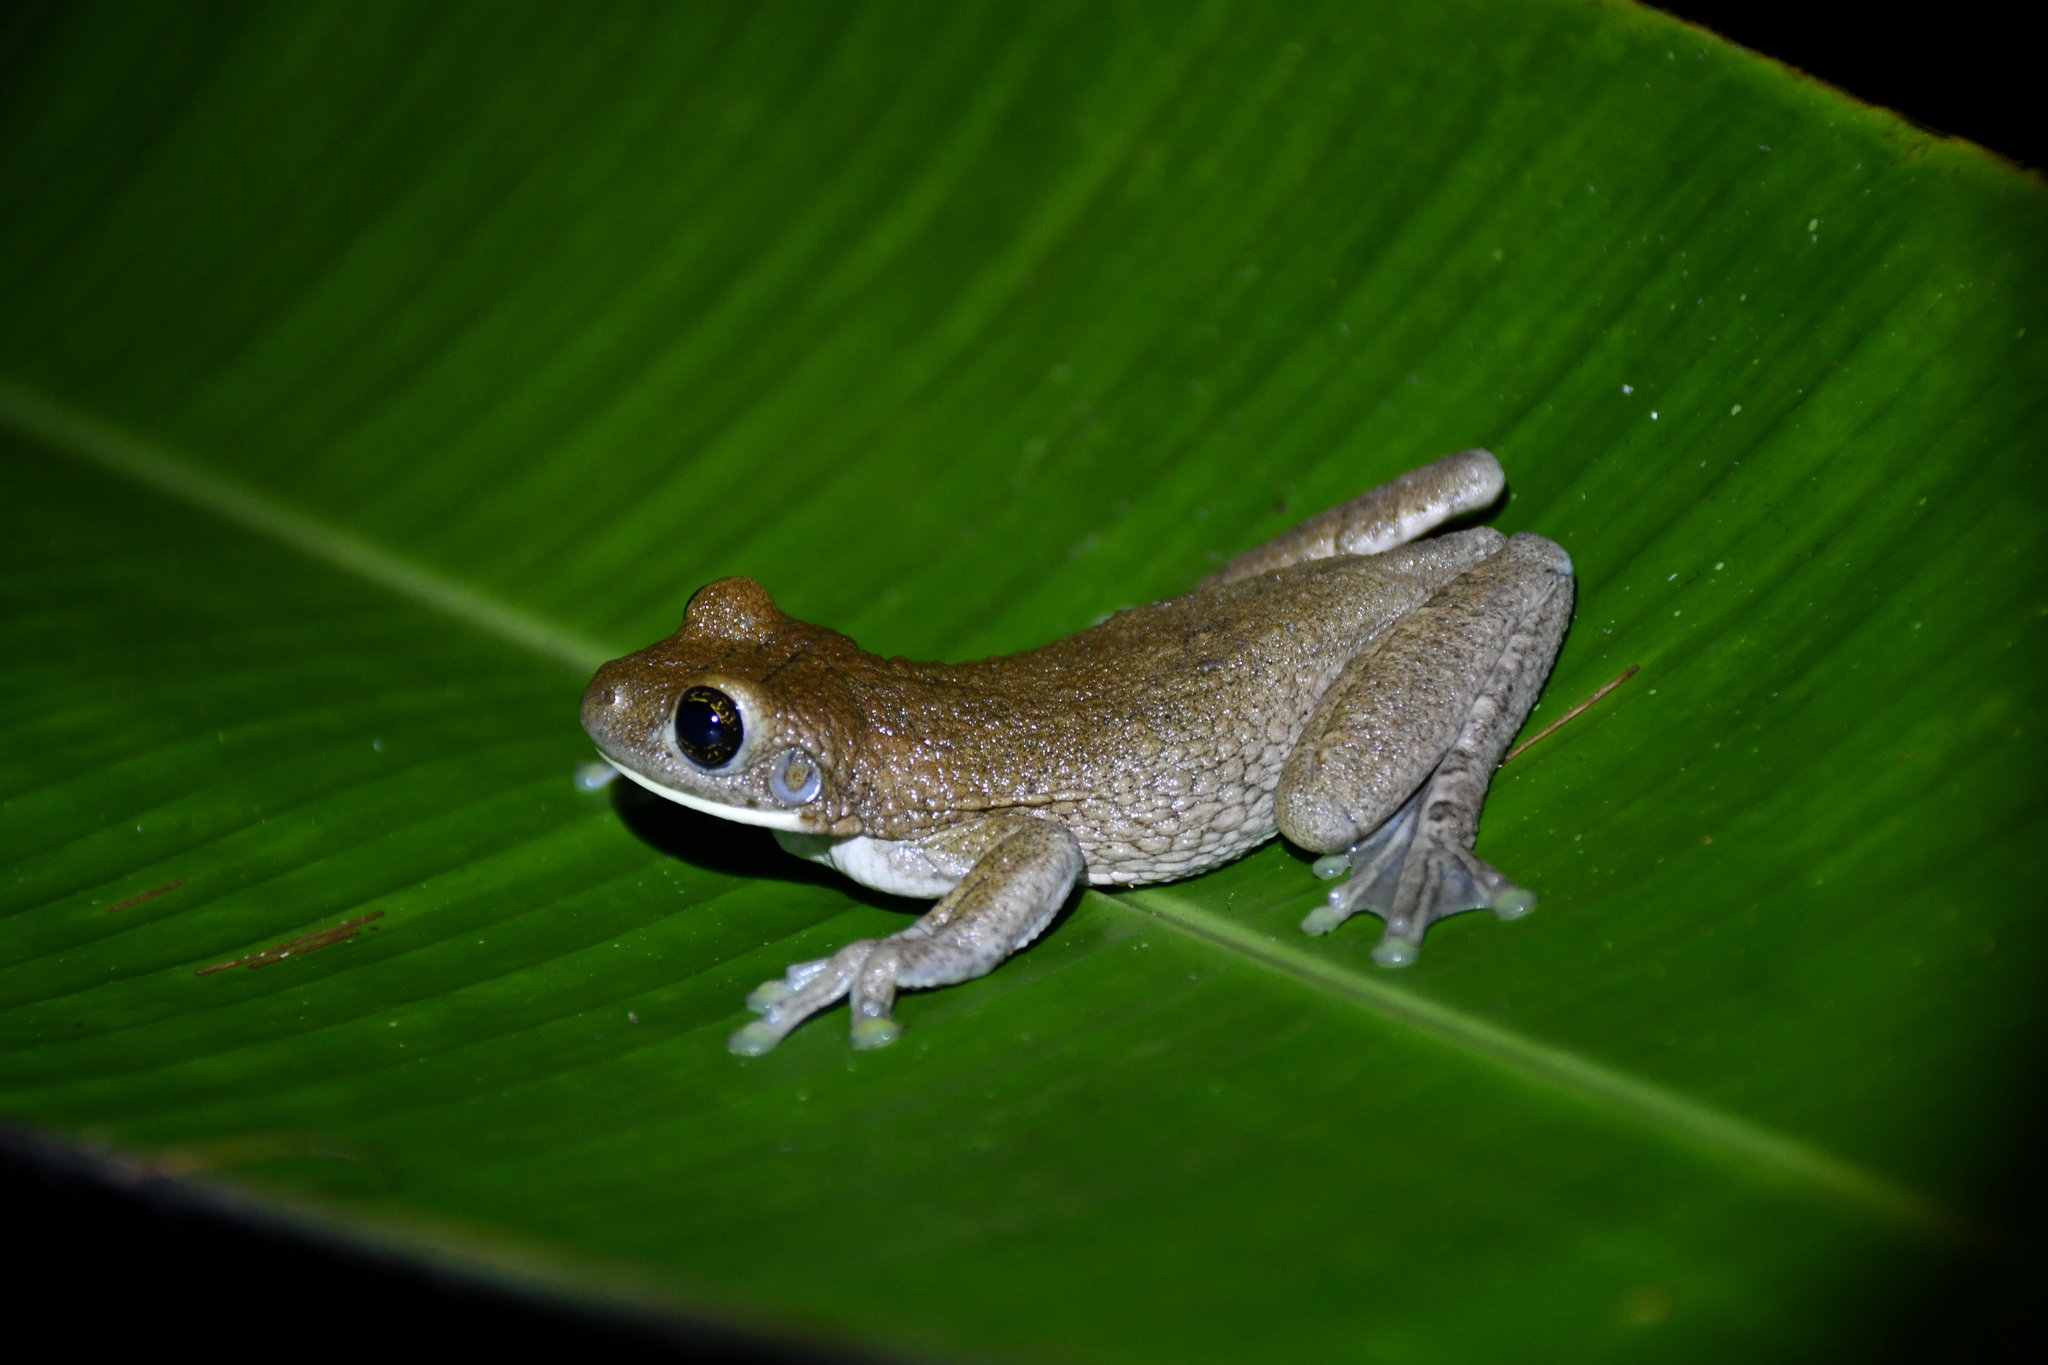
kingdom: Animalia
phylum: Chordata
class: Amphibia
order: Anura
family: Hylidae
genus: Trachycephalus
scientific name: Trachycephalus typhonius
